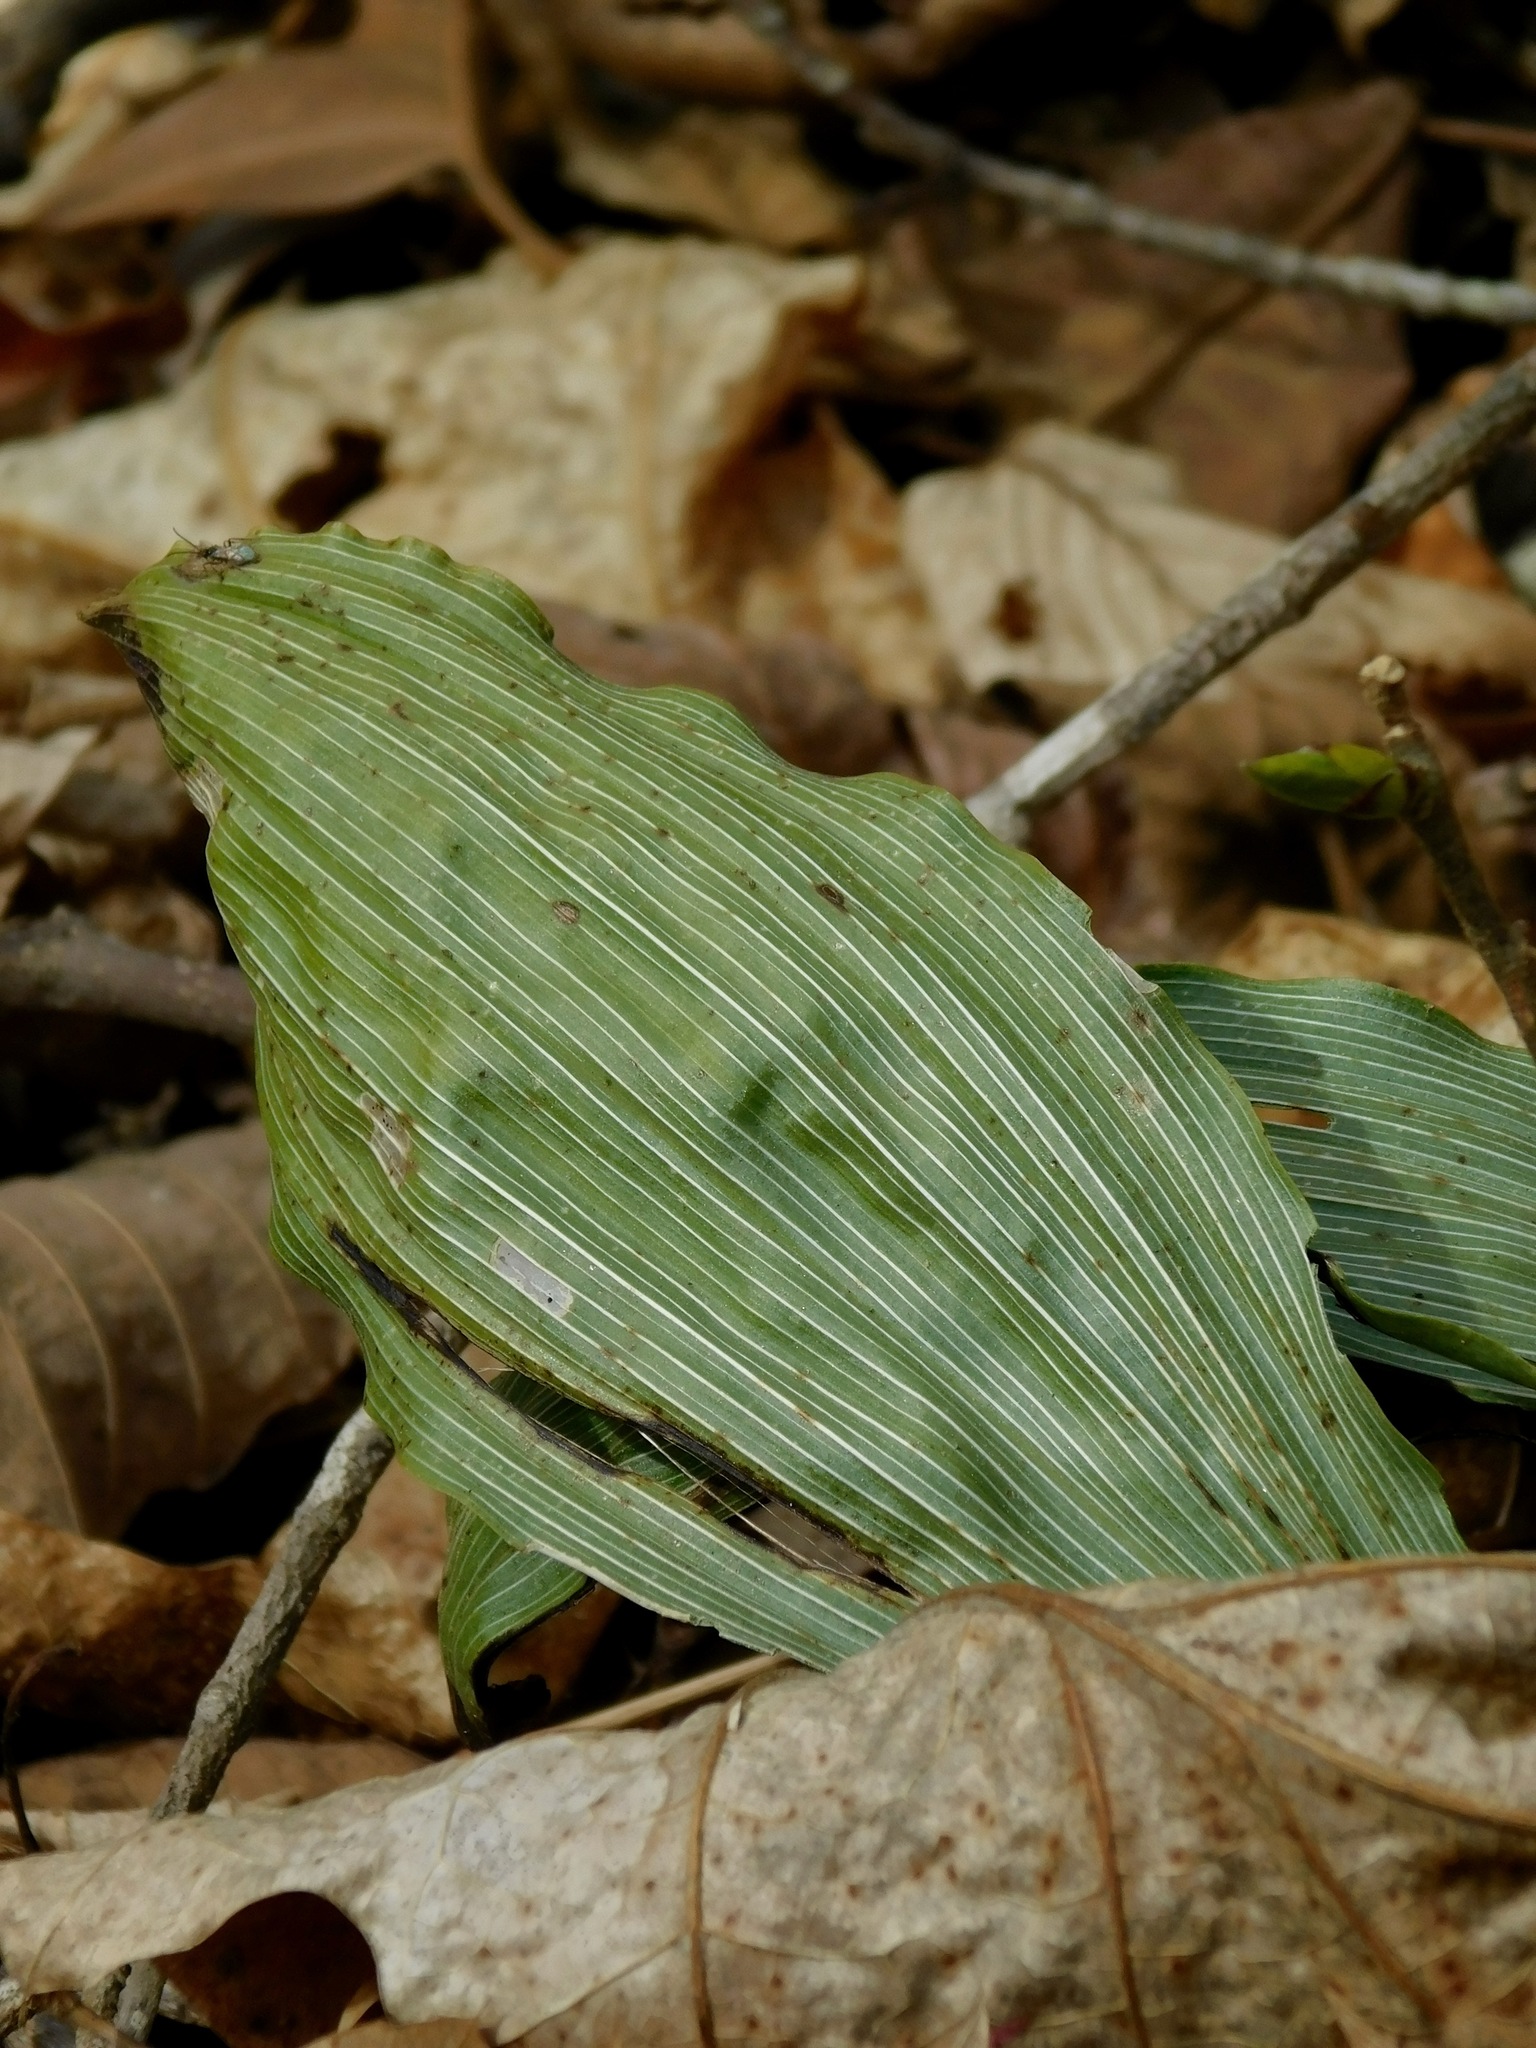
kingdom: Plantae
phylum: Tracheophyta
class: Liliopsida
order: Asparagales
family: Orchidaceae
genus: Aplectrum
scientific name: Aplectrum hyemale
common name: Adam-and-eve
